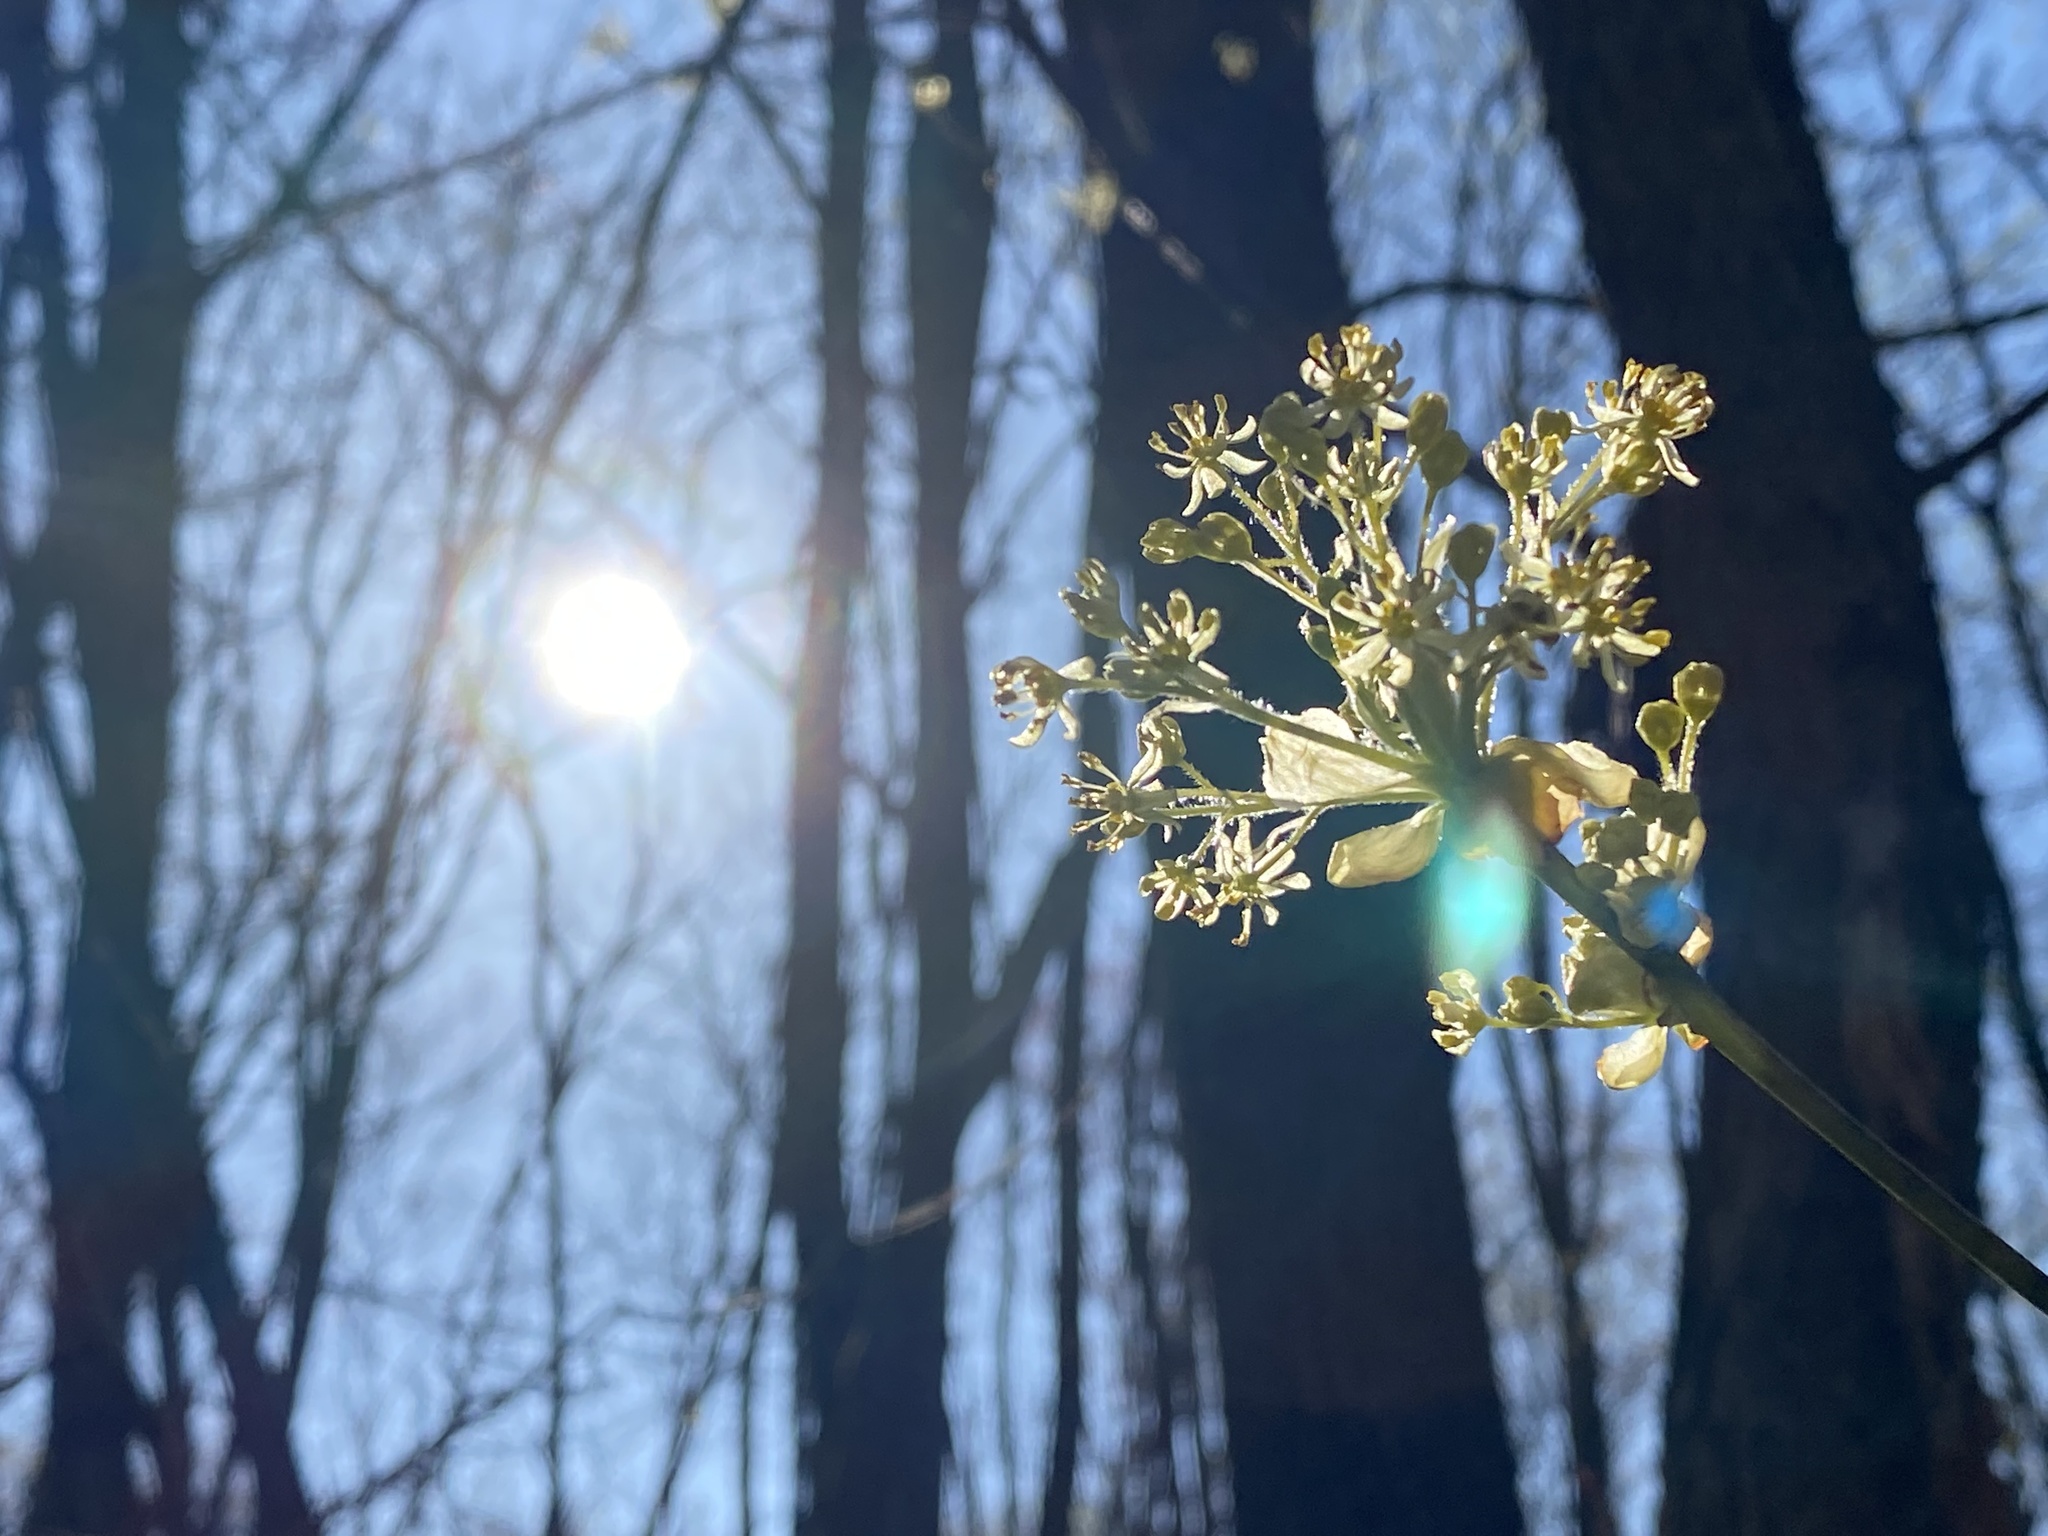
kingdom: Plantae
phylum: Tracheophyta
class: Magnoliopsida
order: Laurales
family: Lauraceae
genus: Sassafras
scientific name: Sassafras albidum
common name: Sassafras
